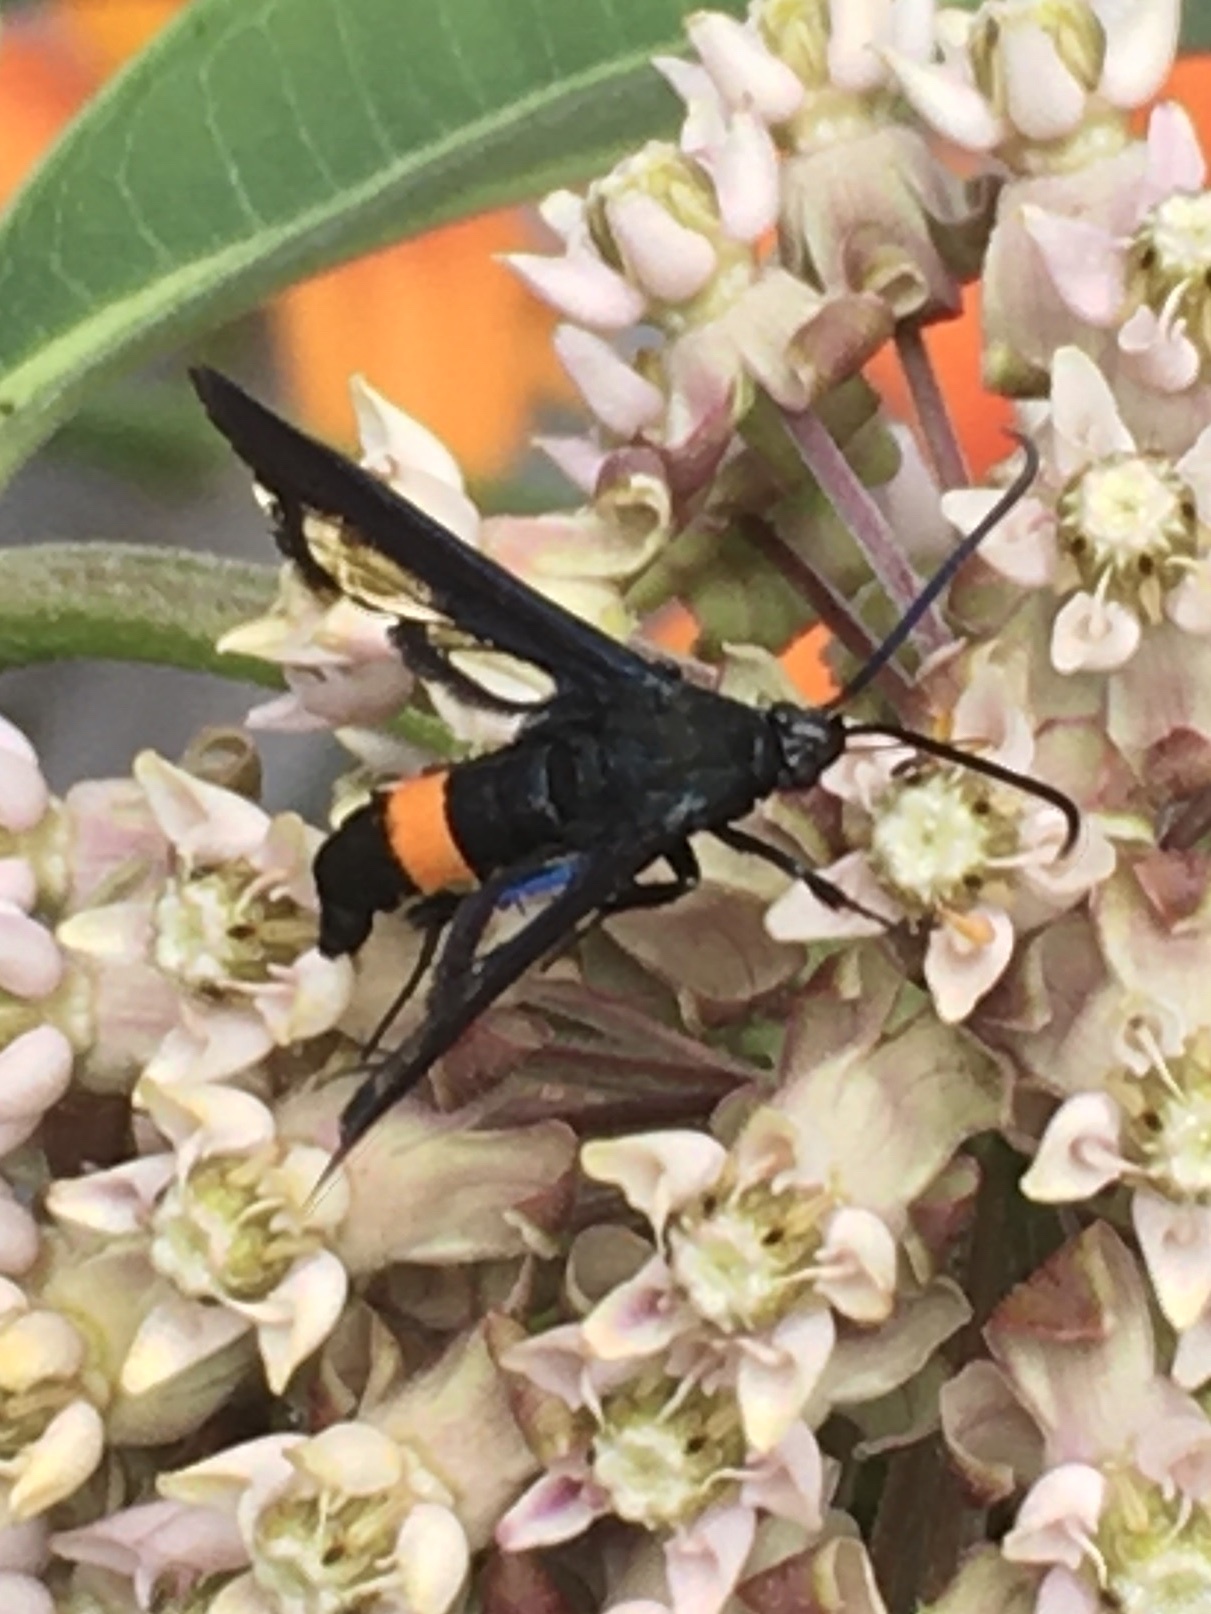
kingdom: Animalia
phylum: Arthropoda
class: Insecta
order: Lepidoptera
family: Sesiidae
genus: Synanthedon
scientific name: Synanthedon exitiosa
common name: Peachtree borer moth
